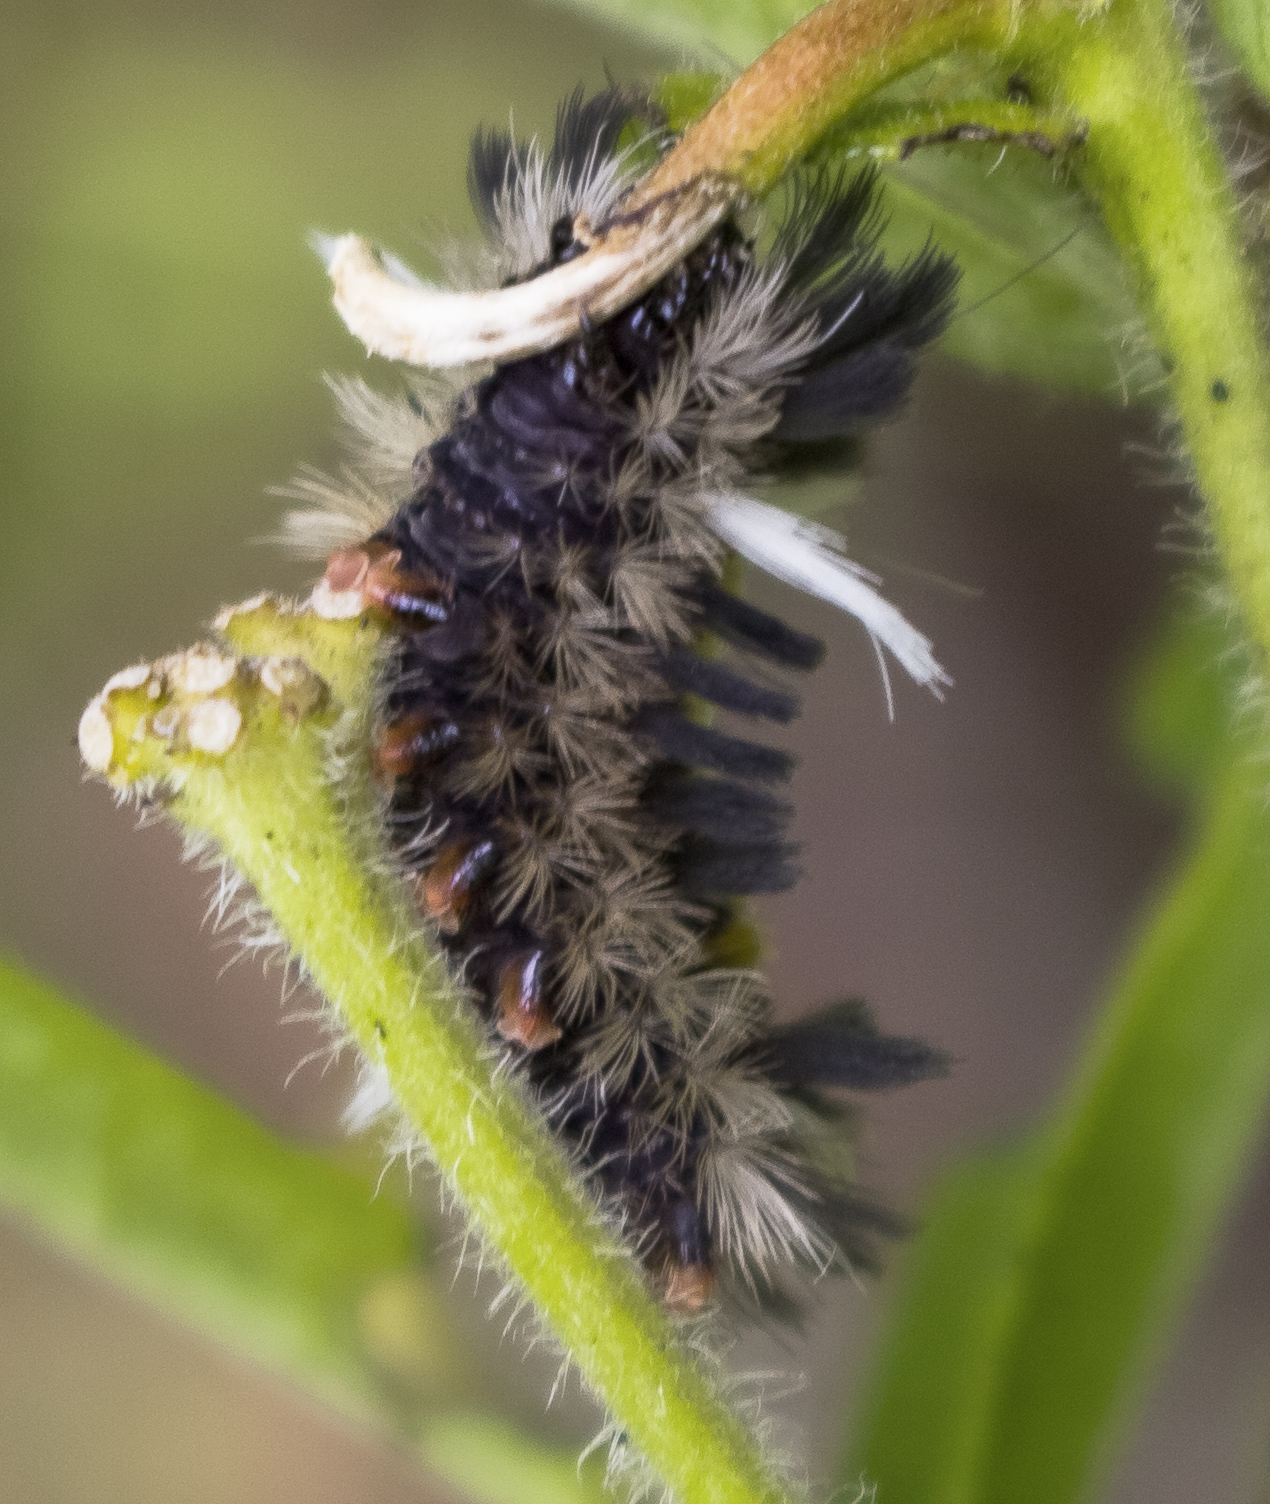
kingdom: Animalia
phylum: Arthropoda
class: Insecta
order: Lepidoptera
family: Erebidae
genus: Euchaetes
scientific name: Euchaetes egle
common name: Milkweed tussock moth
